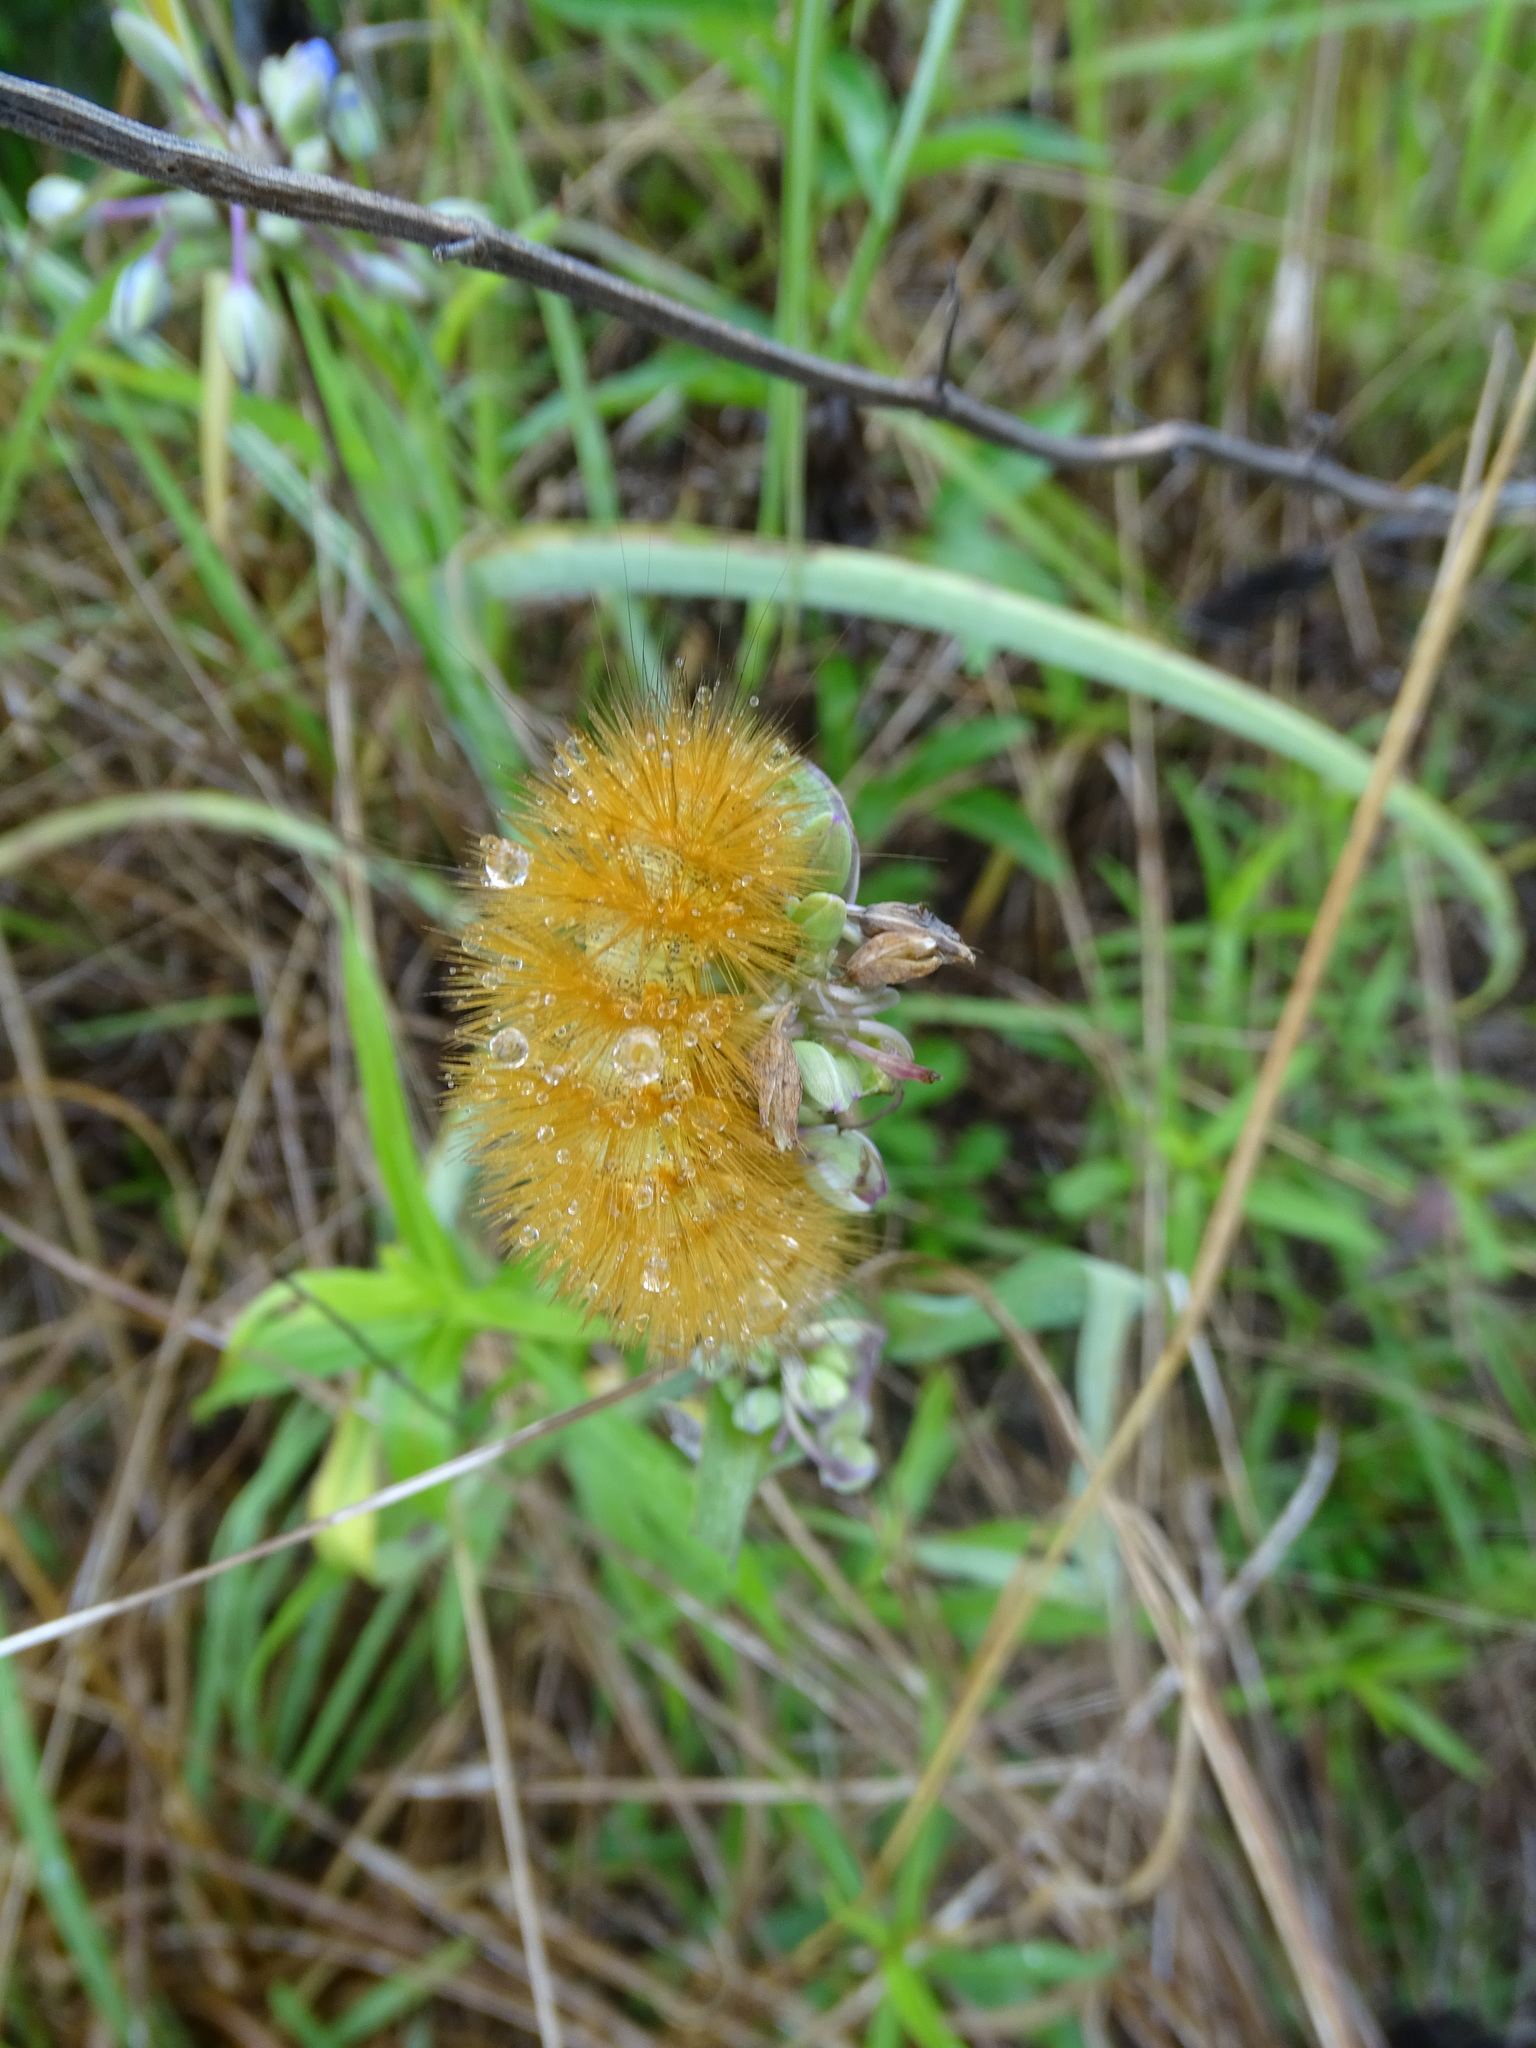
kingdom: Animalia
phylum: Arthropoda
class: Insecta
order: Lepidoptera
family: Erebidae
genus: Estigmene
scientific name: Estigmene acrea
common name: Salt marsh moth
